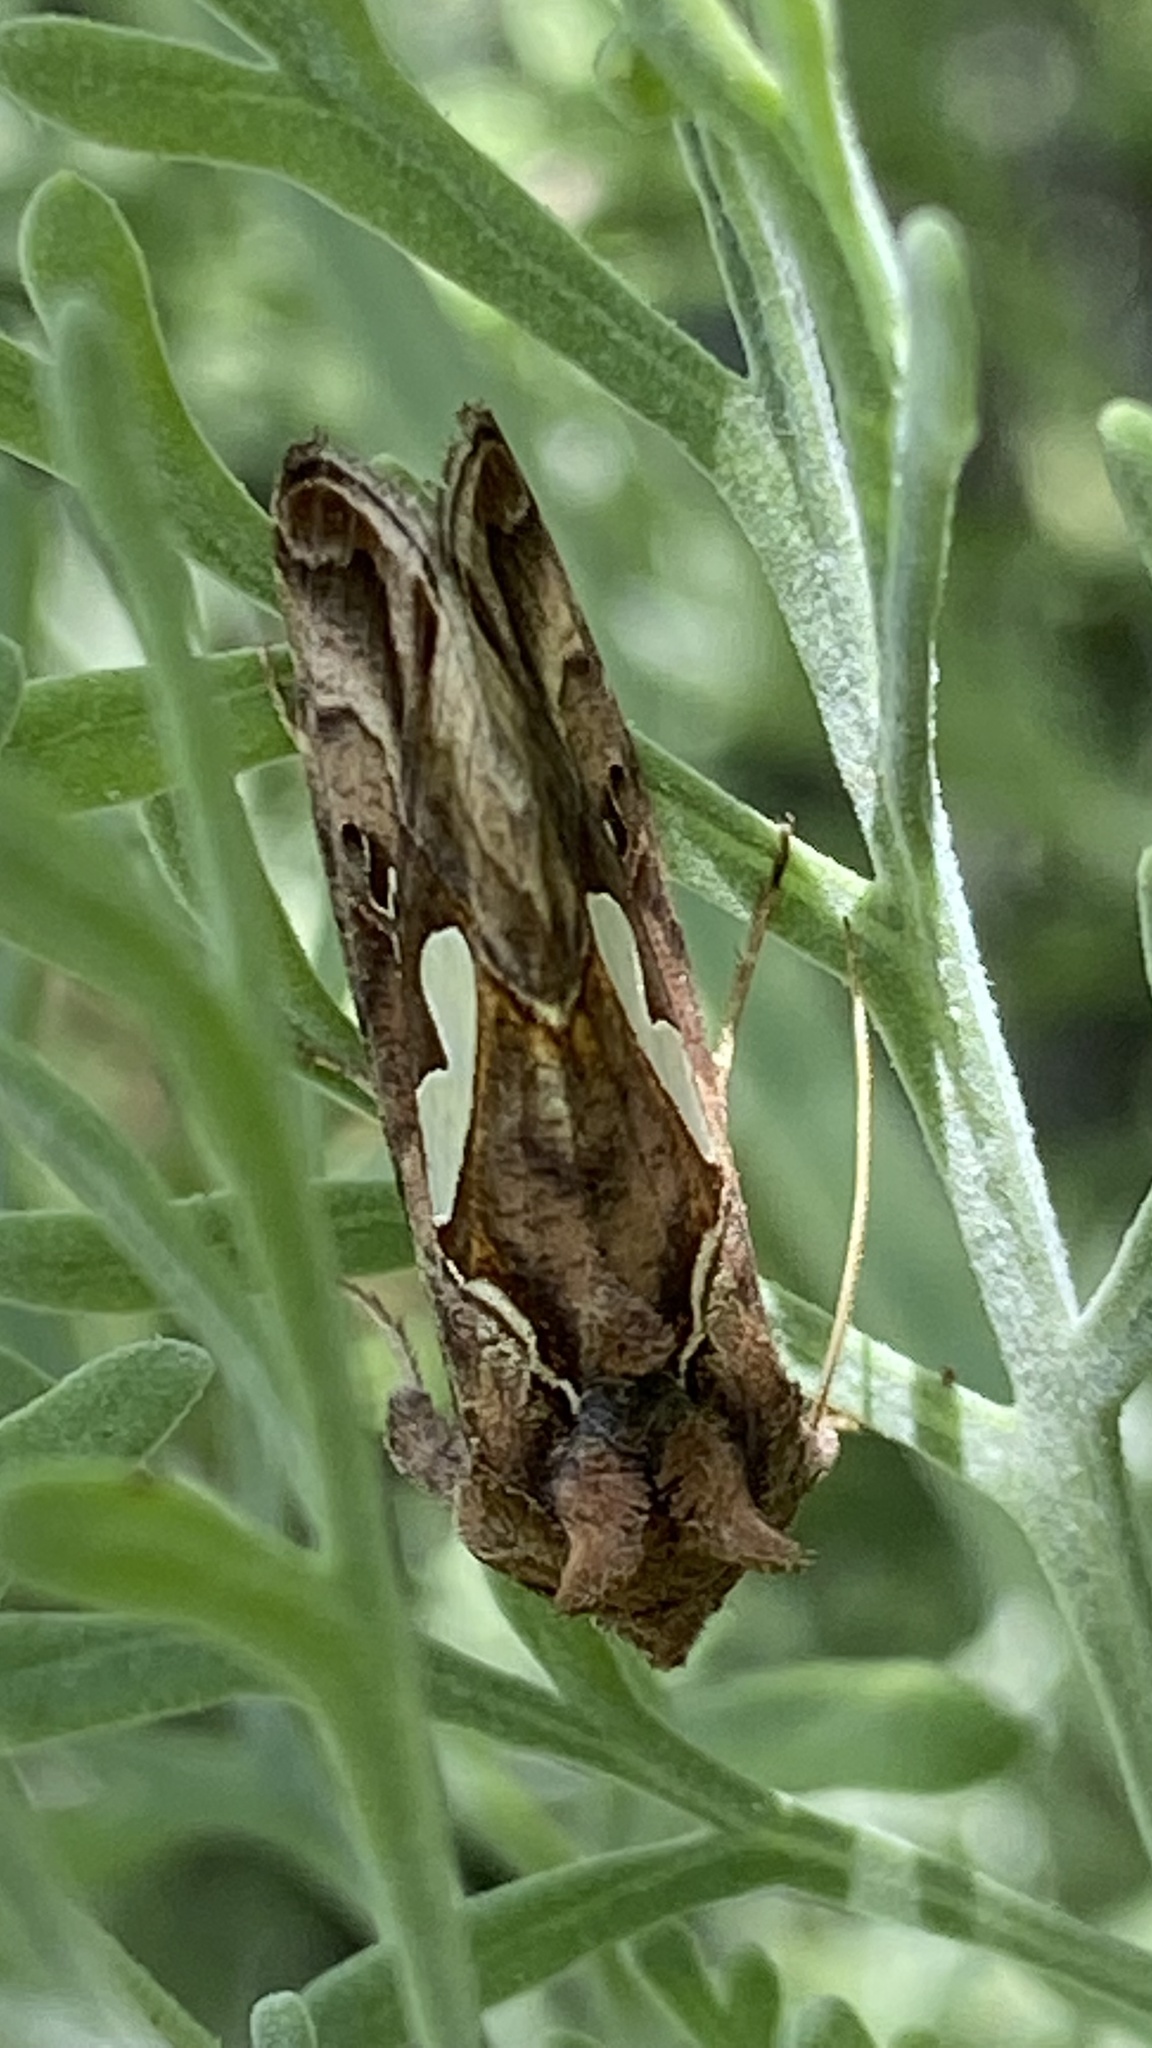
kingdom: Animalia
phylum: Arthropoda
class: Insecta
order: Lepidoptera
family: Noctuidae
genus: Megalographa
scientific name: Megalographa biloba
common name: Cutworm
